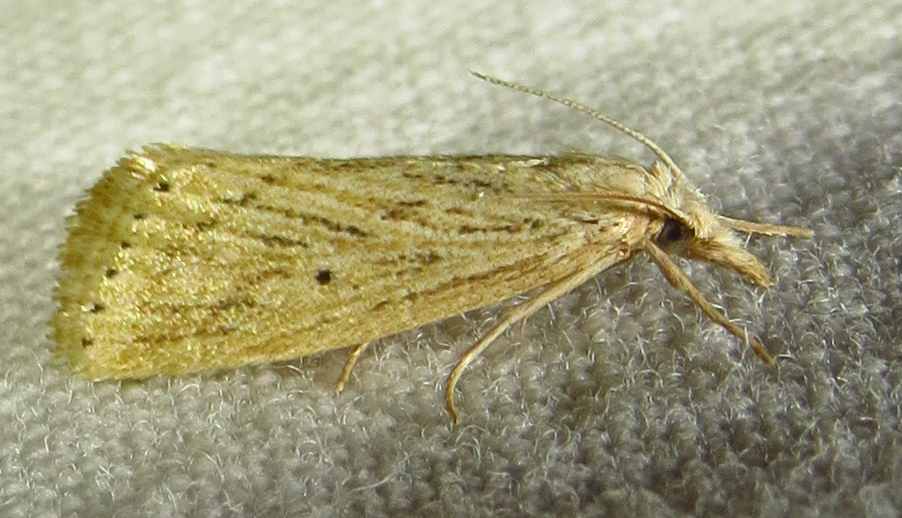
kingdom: Animalia
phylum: Arthropoda
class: Insecta
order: Lepidoptera
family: Crambidae
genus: Diatraea
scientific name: Diatraea lisetta
